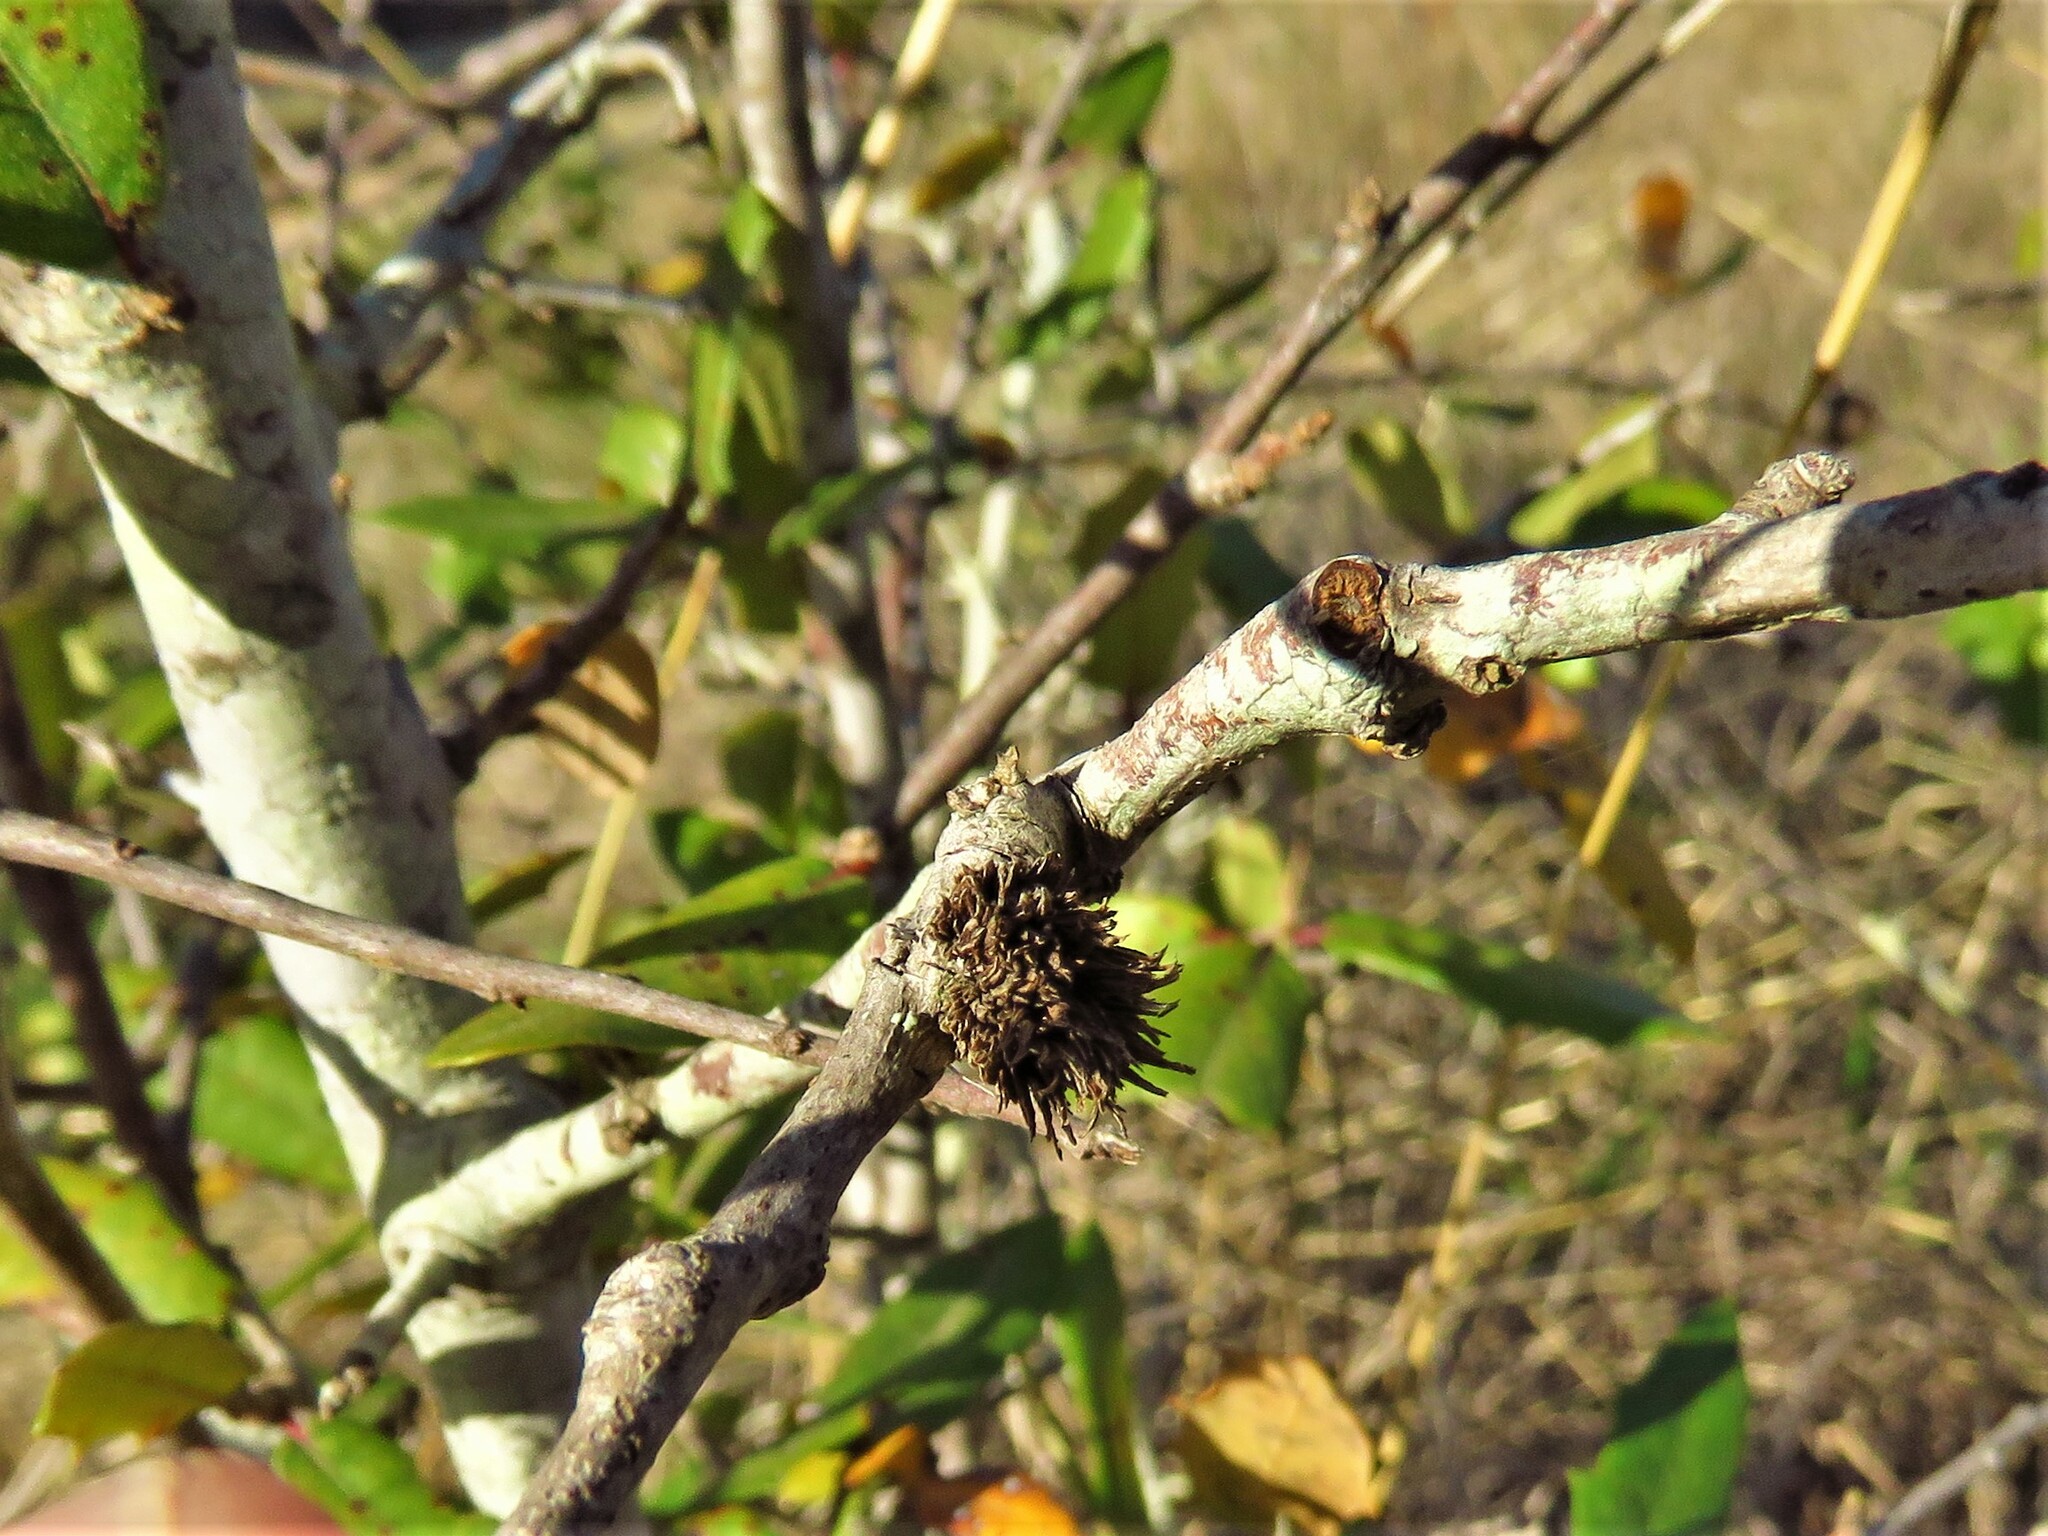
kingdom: Animalia
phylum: Arthropoda
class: Insecta
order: Hymenoptera
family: Cynipidae
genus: Andricus
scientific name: Andricus quercusfoliatus
